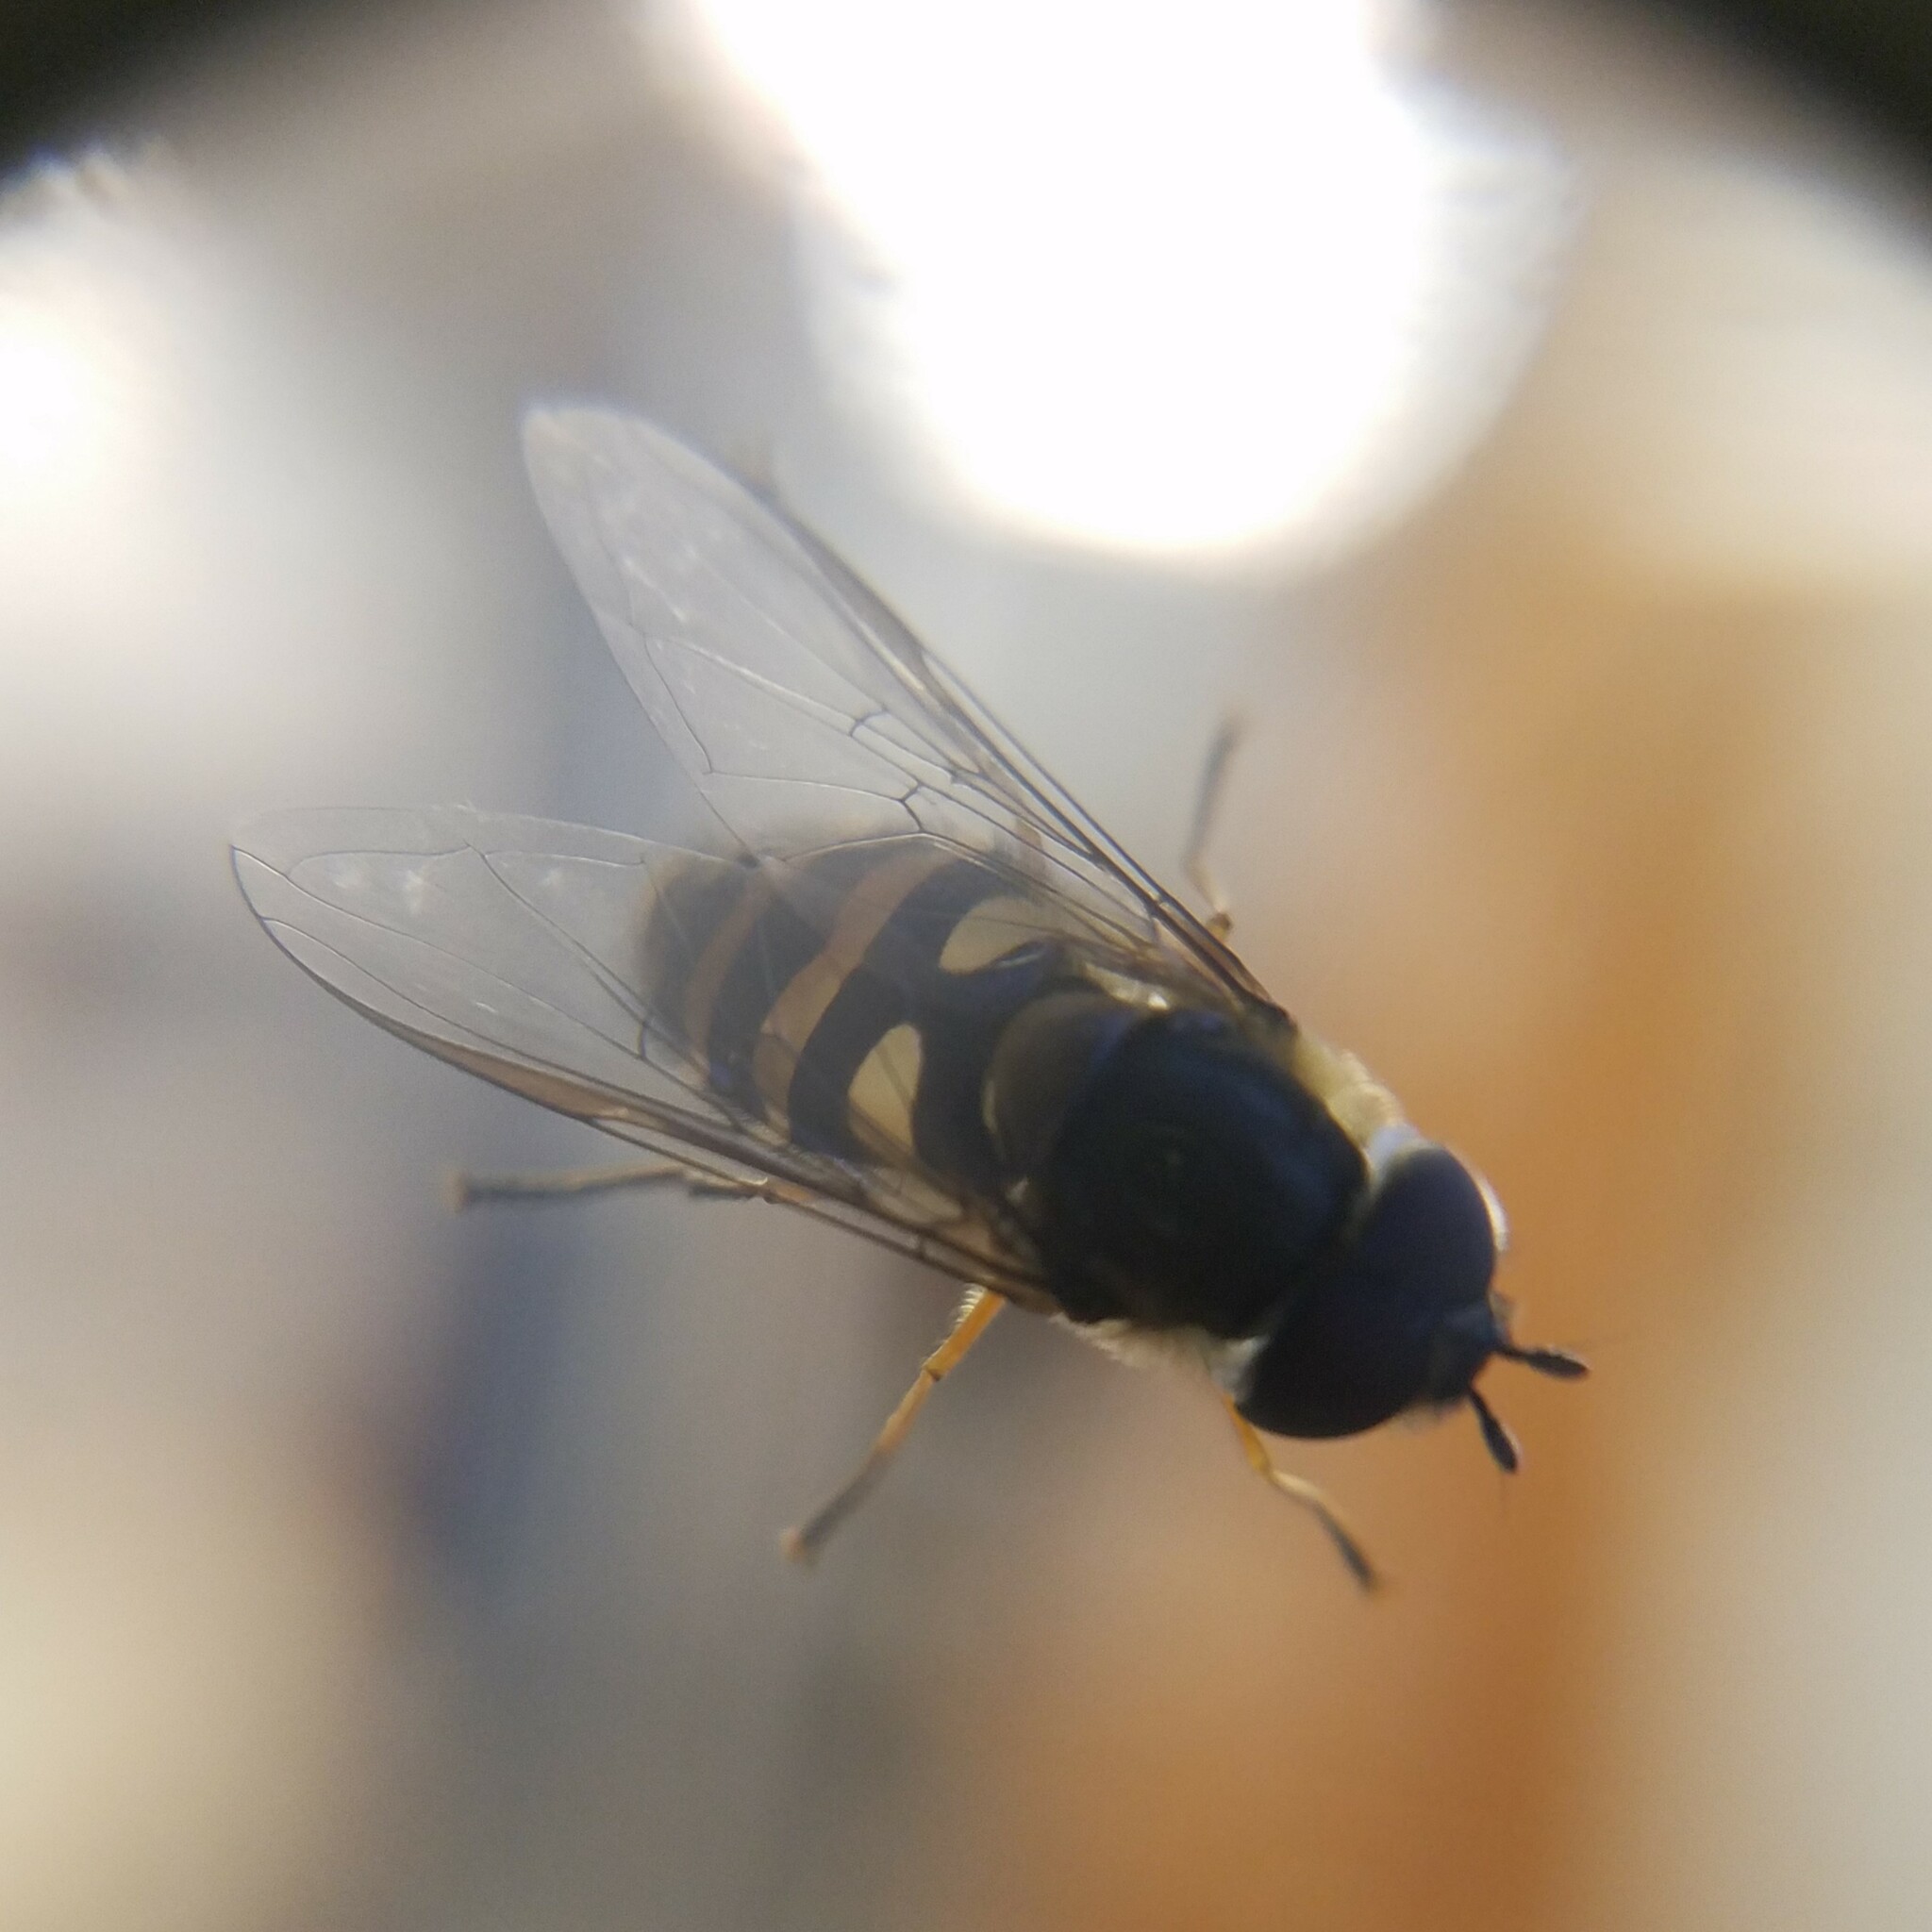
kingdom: Animalia
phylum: Arthropoda
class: Insecta
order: Diptera
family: Syrphidae
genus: Syrphus
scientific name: Syrphus torvus
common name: Hairy-eyed flower fly
